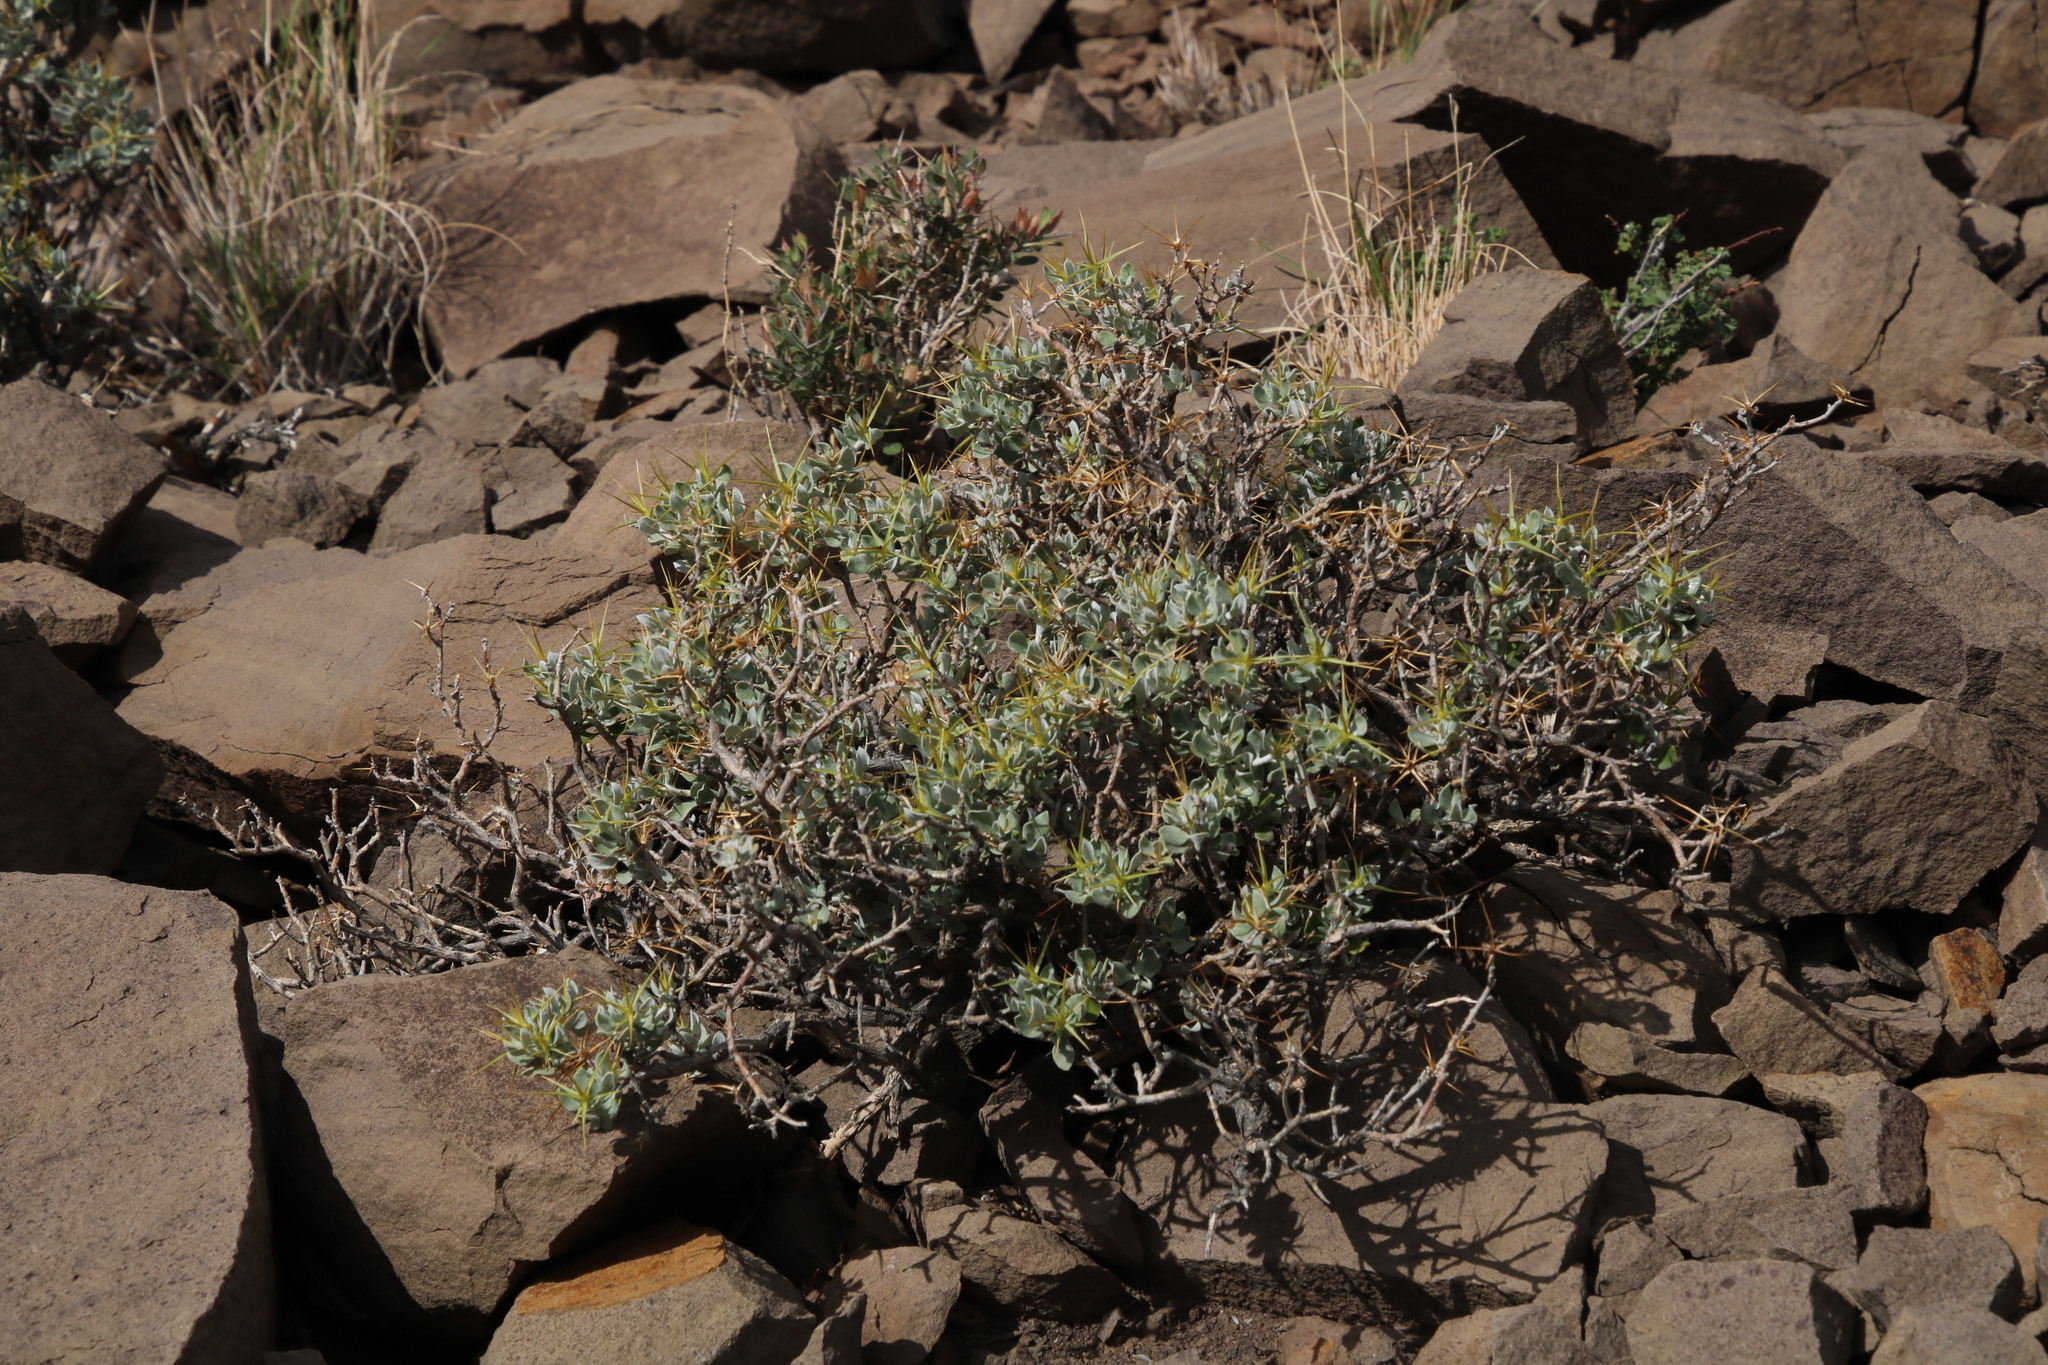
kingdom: Plantae
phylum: Tracheophyta
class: Magnoliopsida
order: Asterales
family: Asteraceae
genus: Macledium
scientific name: Macledium spinosum
